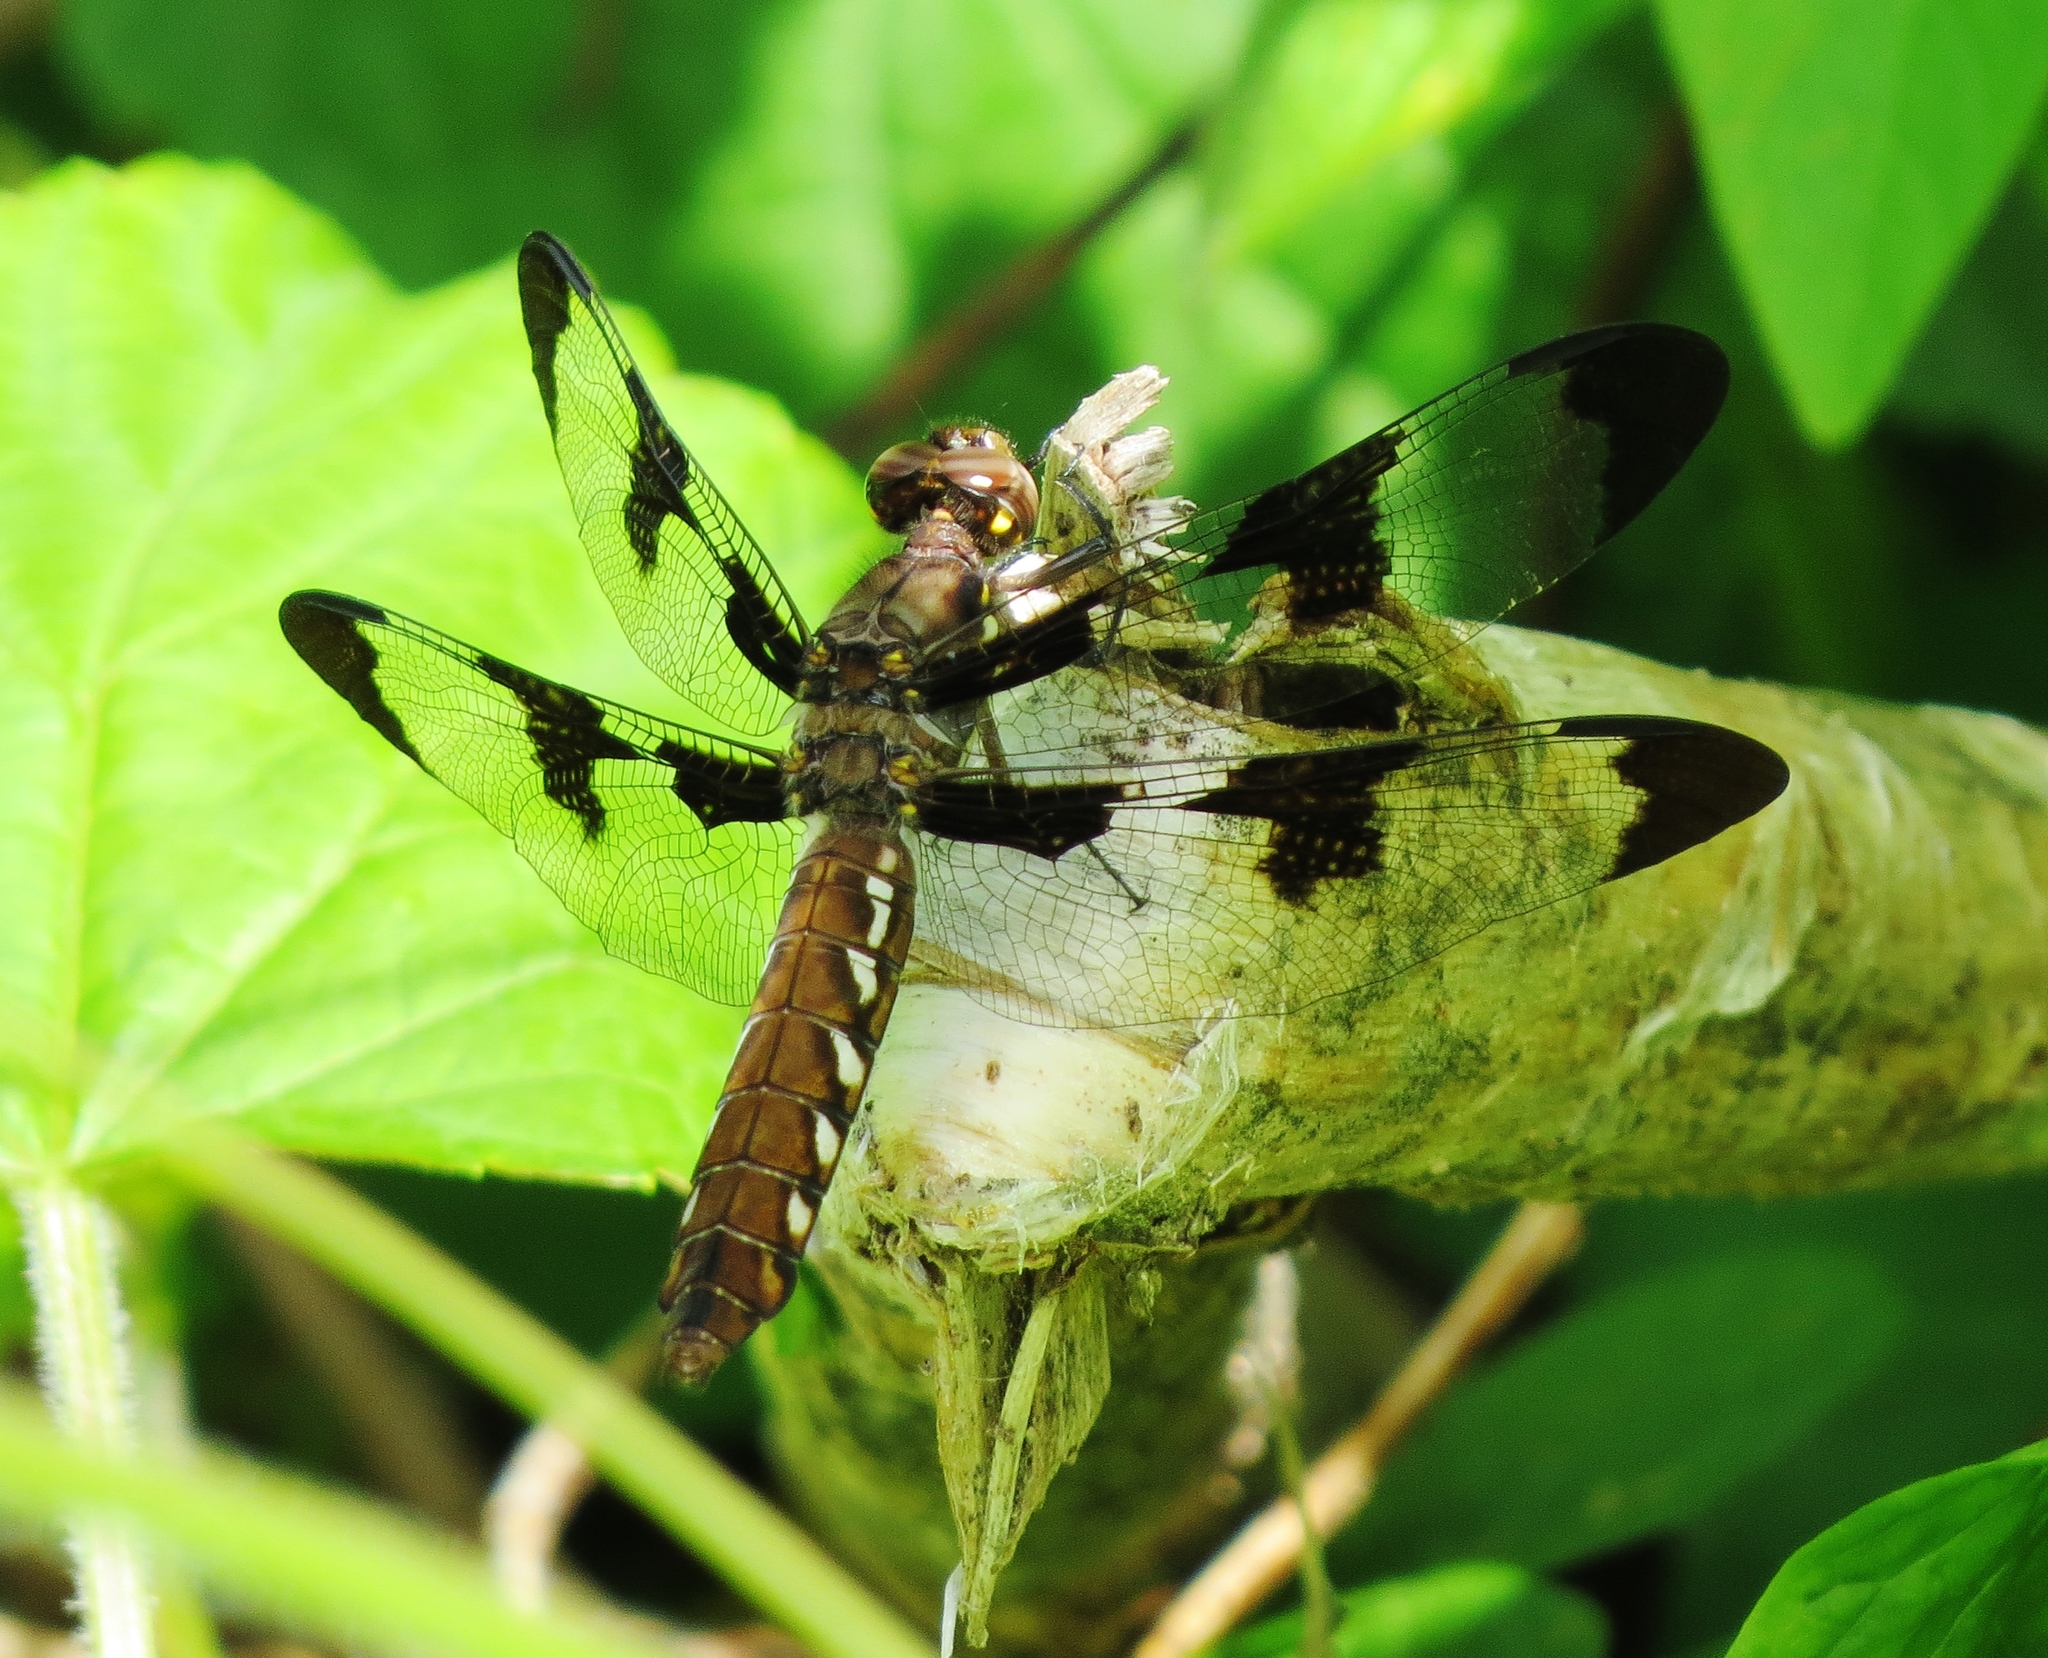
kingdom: Animalia
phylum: Arthropoda
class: Insecta
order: Odonata
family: Libellulidae
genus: Plathemis
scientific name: Plathemis lydia
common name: Common whitetail
